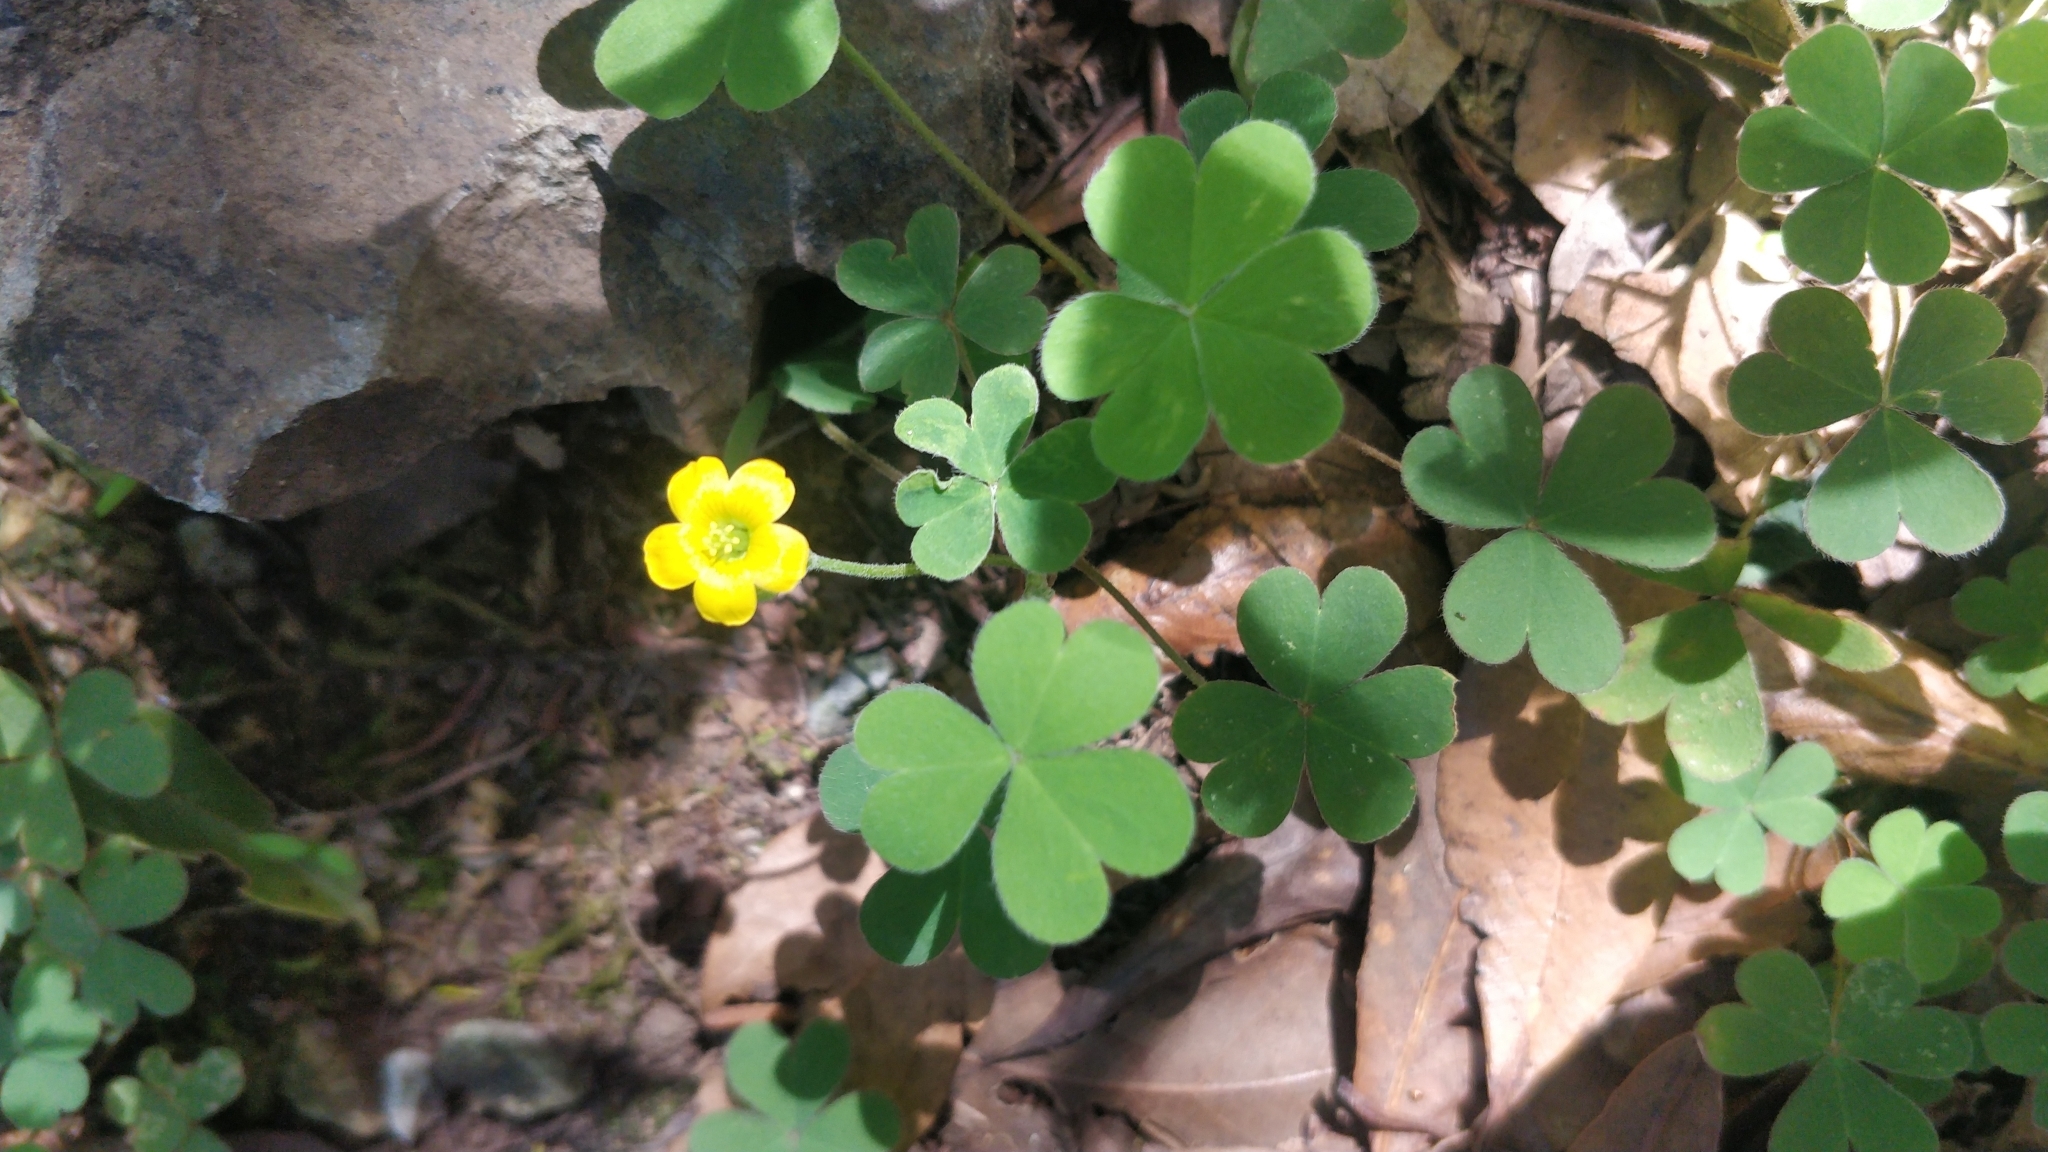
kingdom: Plantae
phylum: Tracheophyta
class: Magnoliopsida
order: Oxalidales
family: Oxalidaceae
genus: Oxalis
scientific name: Oxalis corniculata
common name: Procumbent yellow-sorrel
